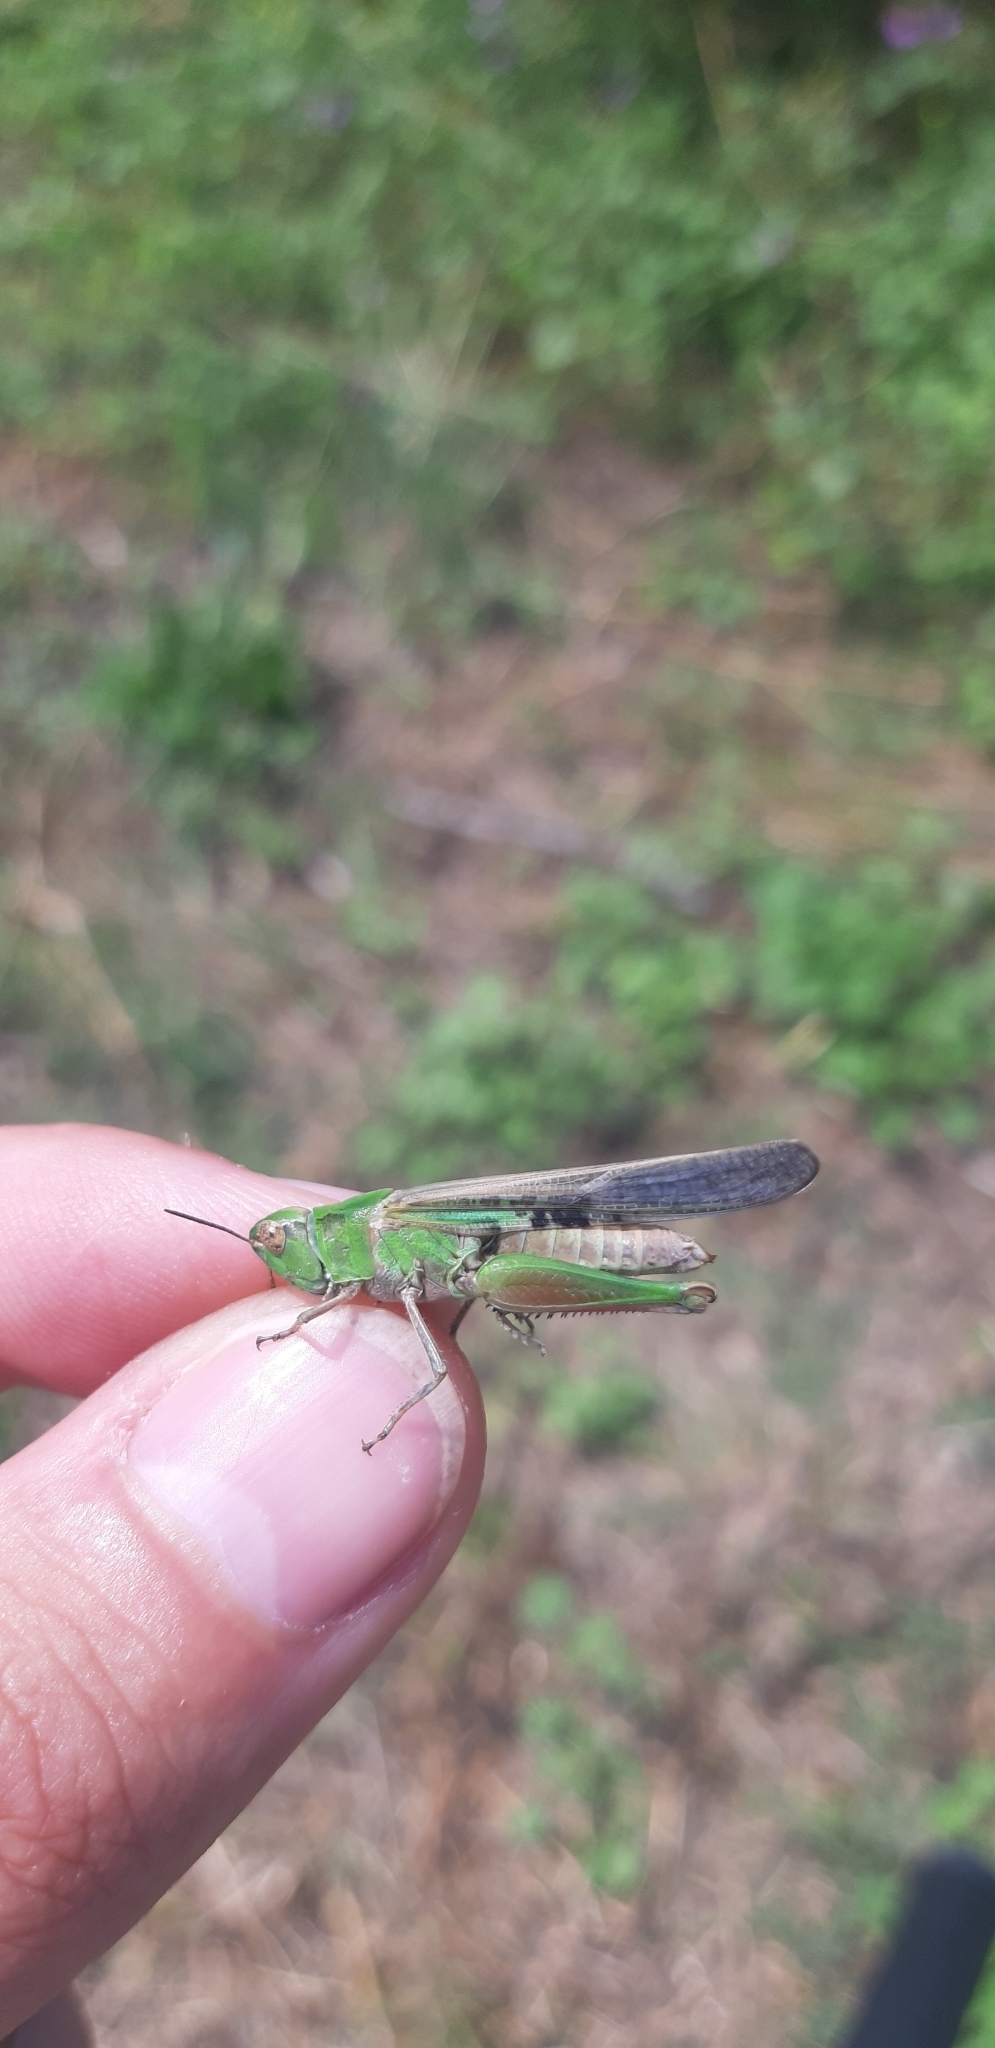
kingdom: Animalia
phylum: Arthropoda
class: Insecta
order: Orthoptera
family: Acrididae
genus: Aiolopus
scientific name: Aiolopus puissanti
